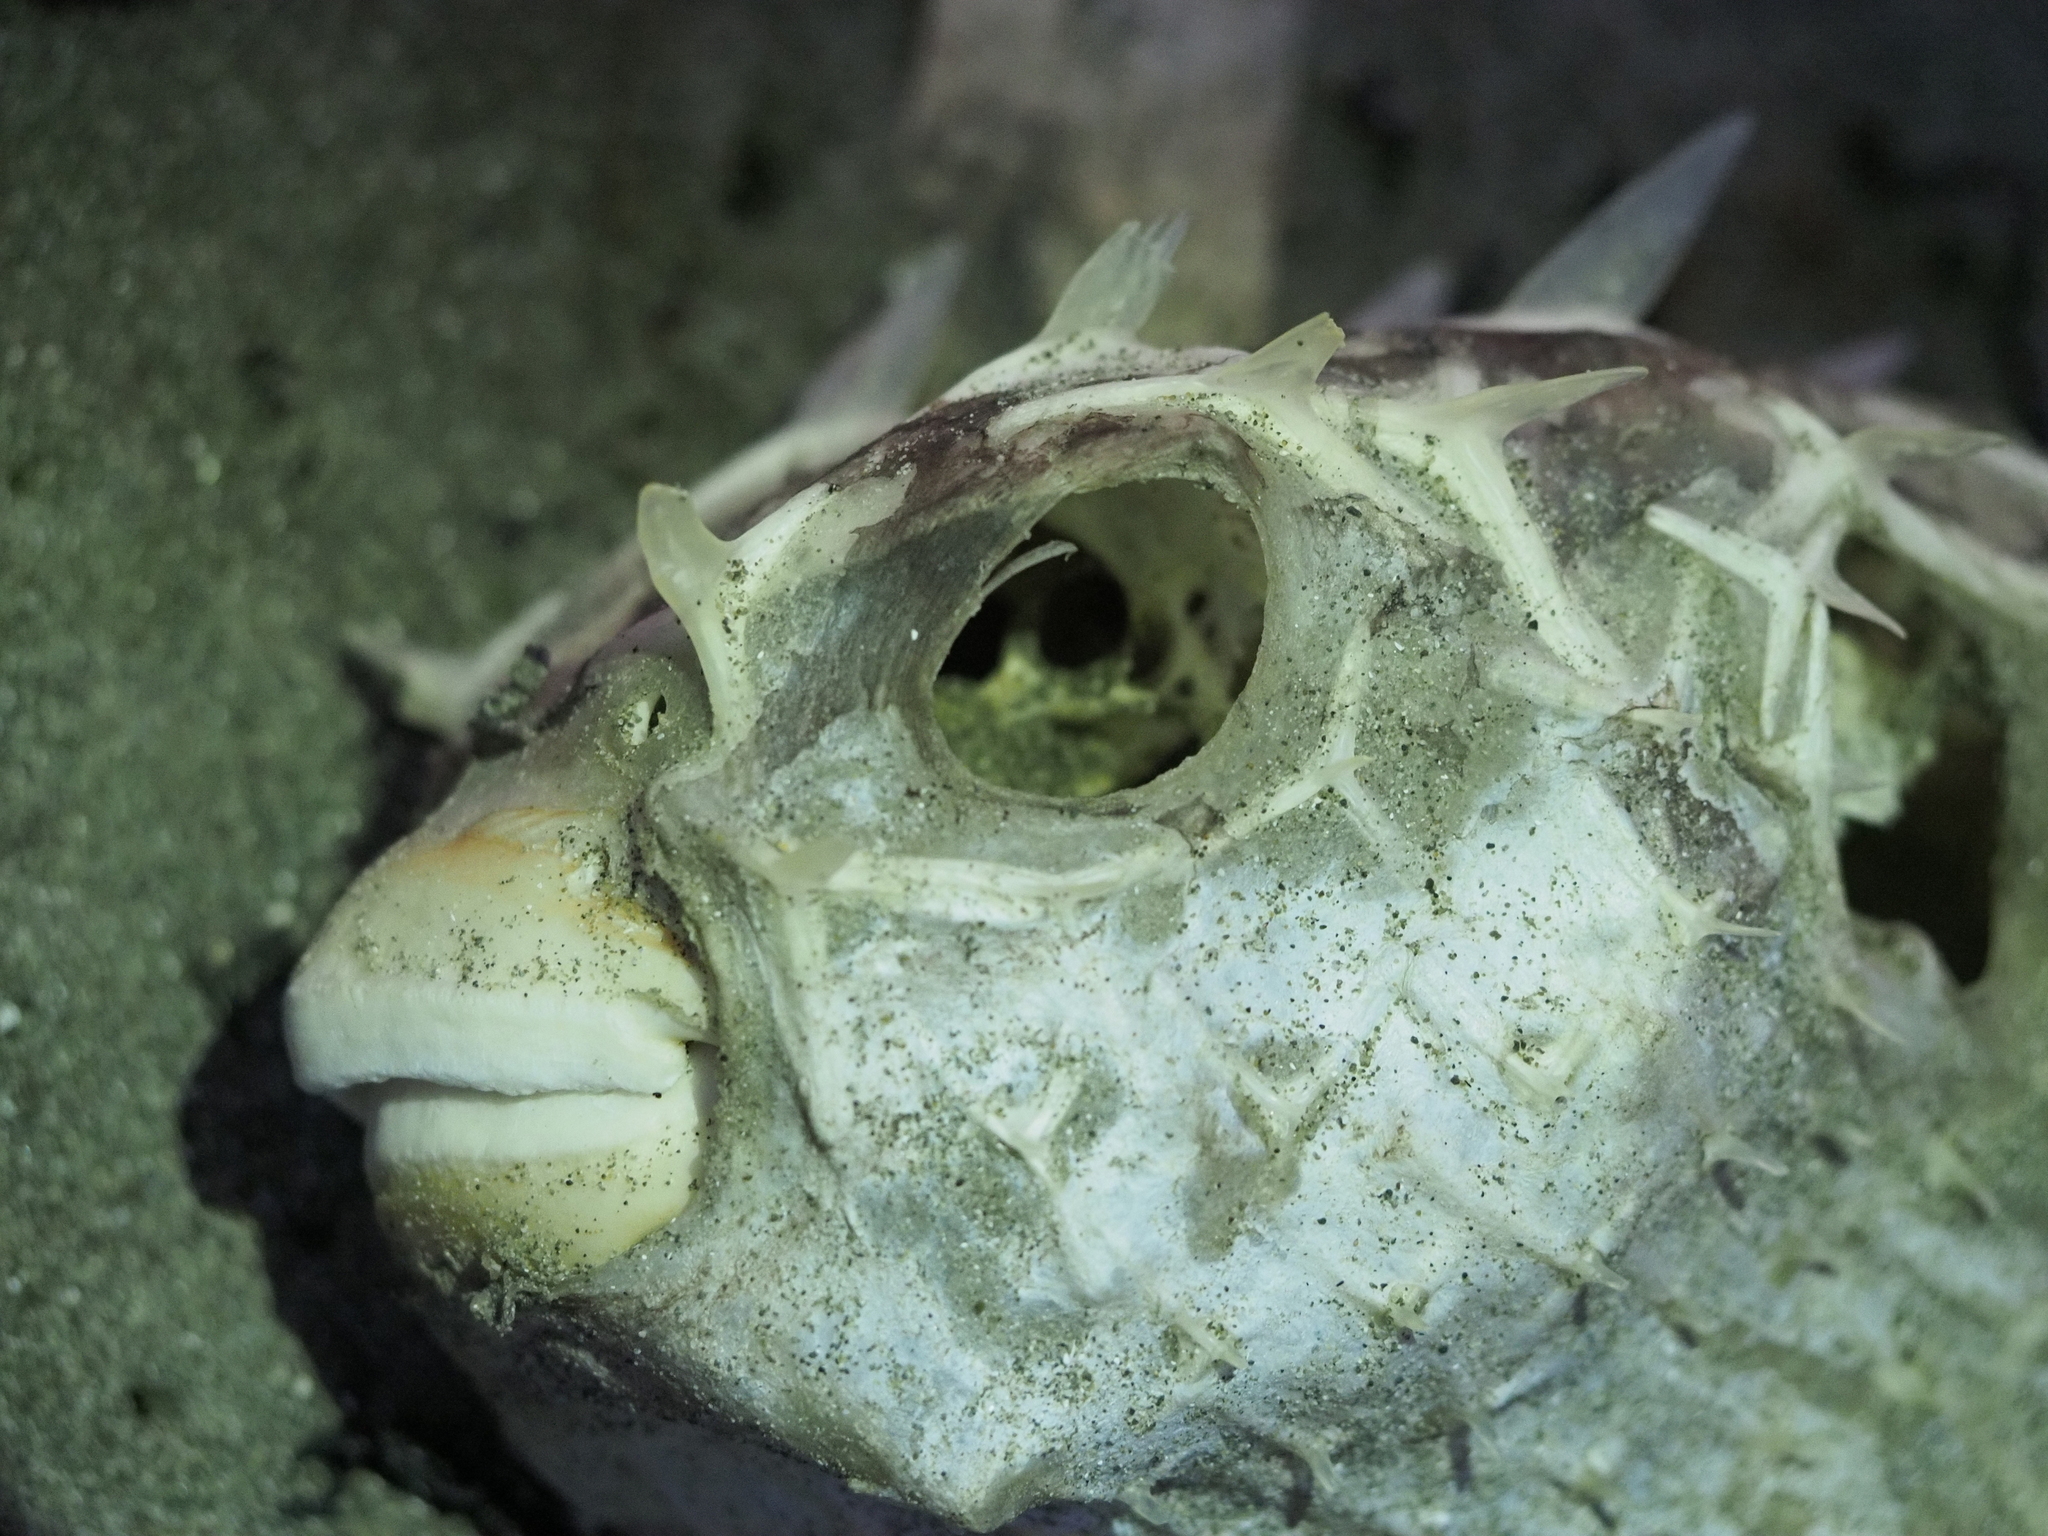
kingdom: Animalia
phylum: Chordata
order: Tetraodontiformes
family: Diodontidae
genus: Allomycterus
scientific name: Allomycterus pilatus
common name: No common name
